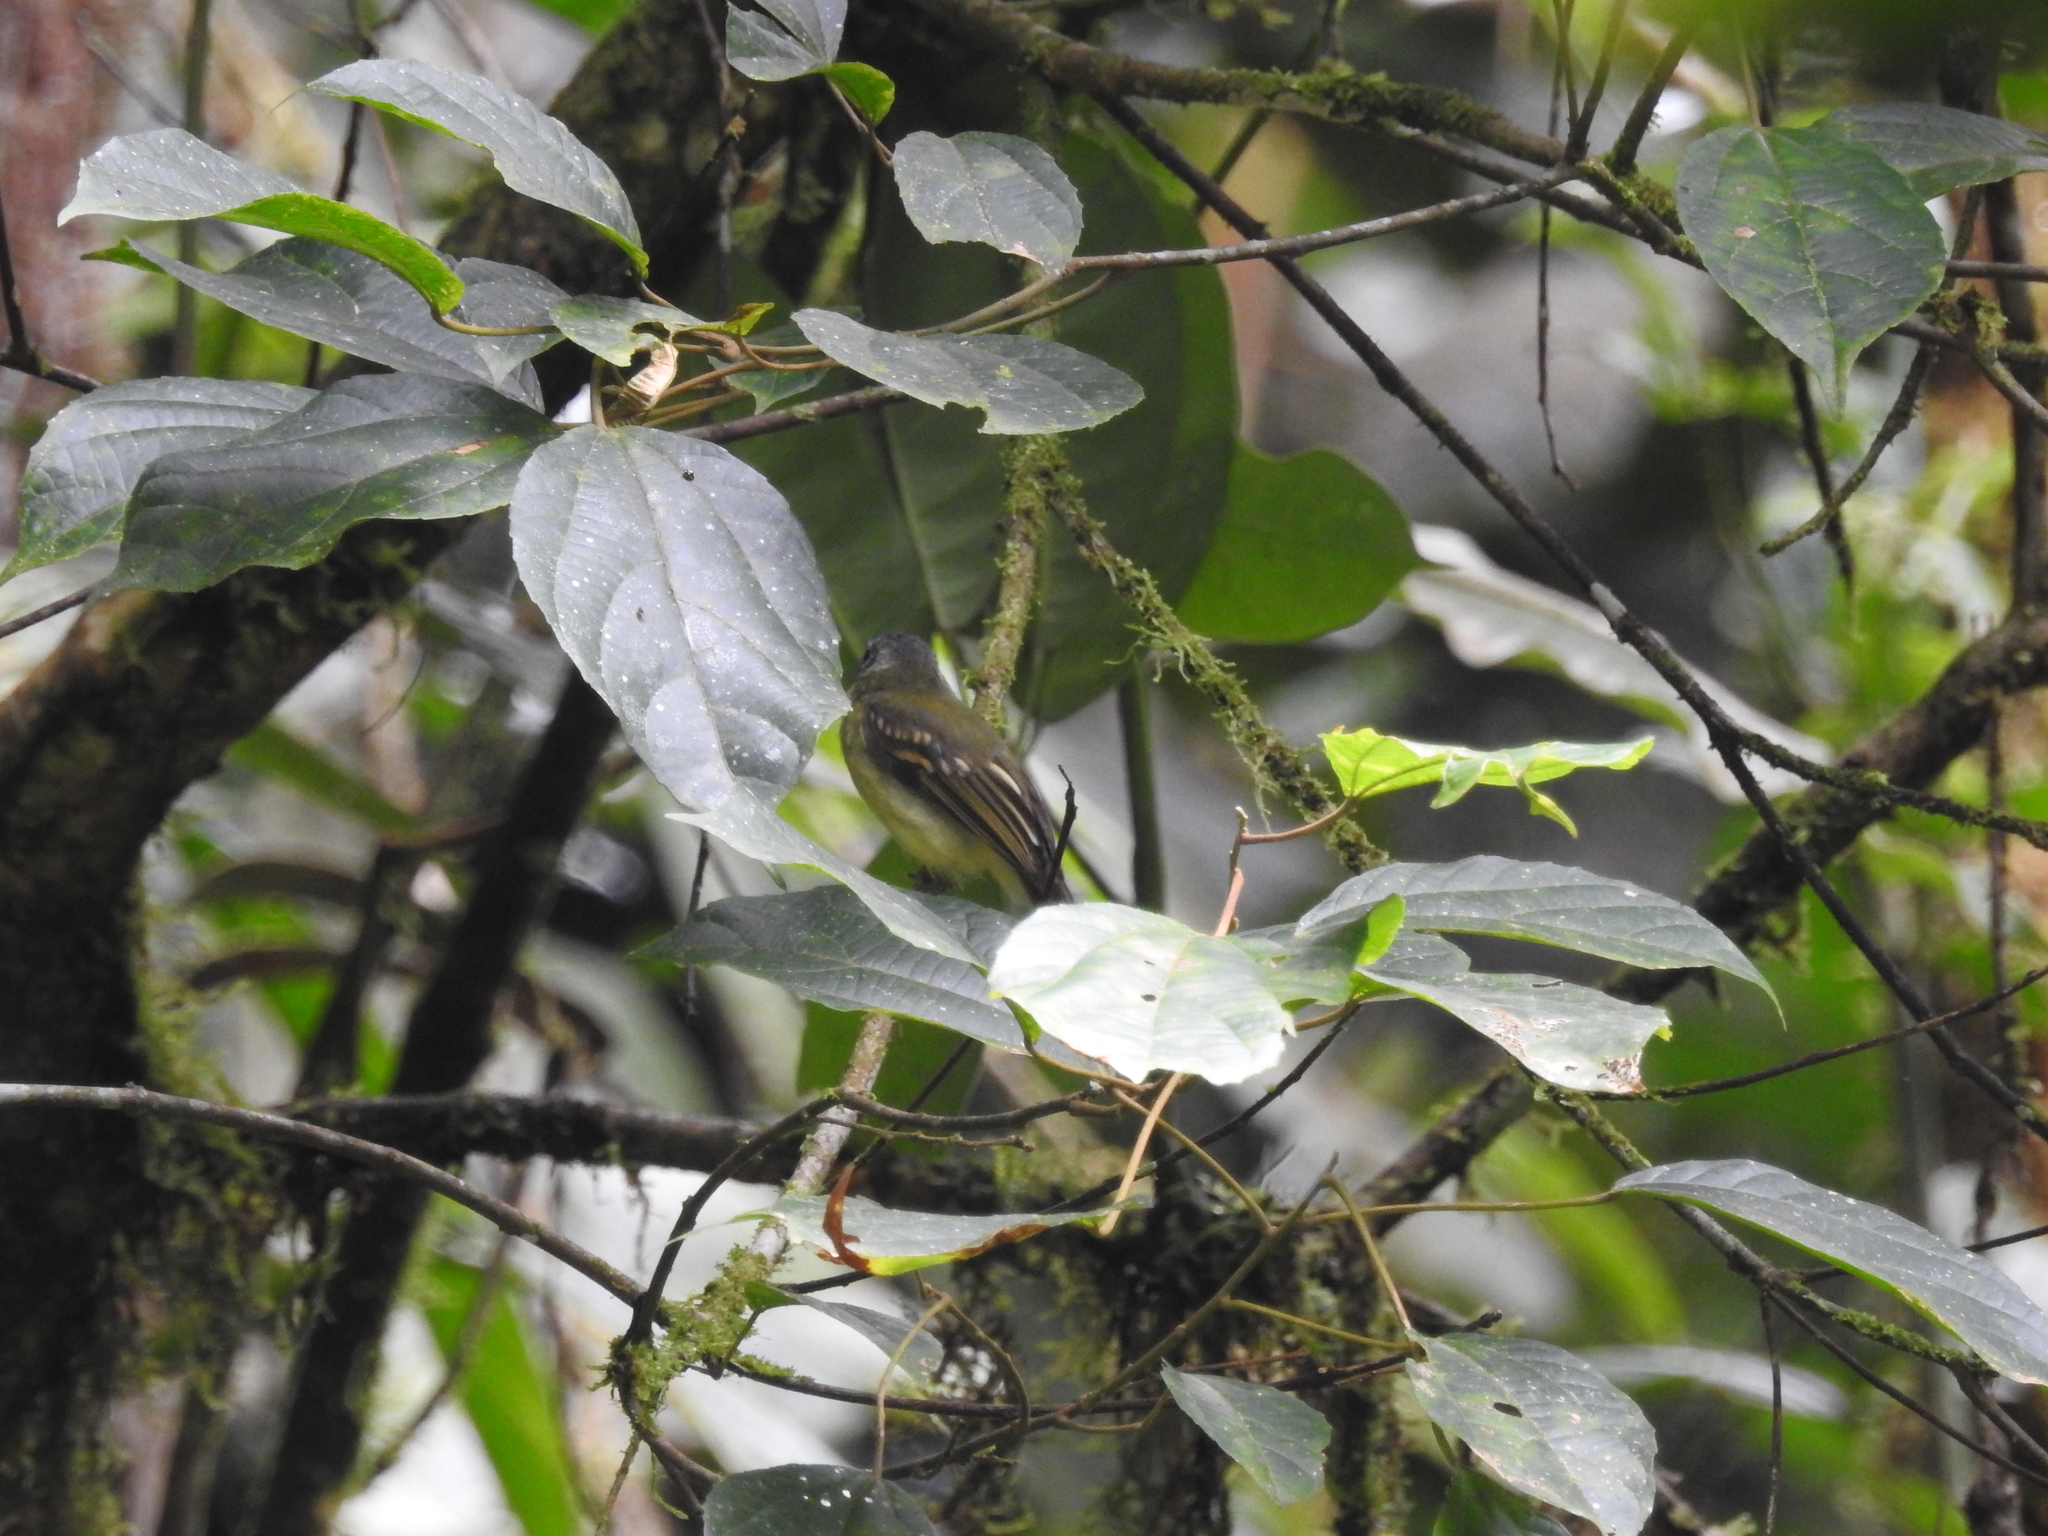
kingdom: Animalia
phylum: Chordata
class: Aves
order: Passeriformes
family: Tyrannidae
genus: Leptopogon
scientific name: Leptopogon superciliaris
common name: Slaty-capped flycatcher
